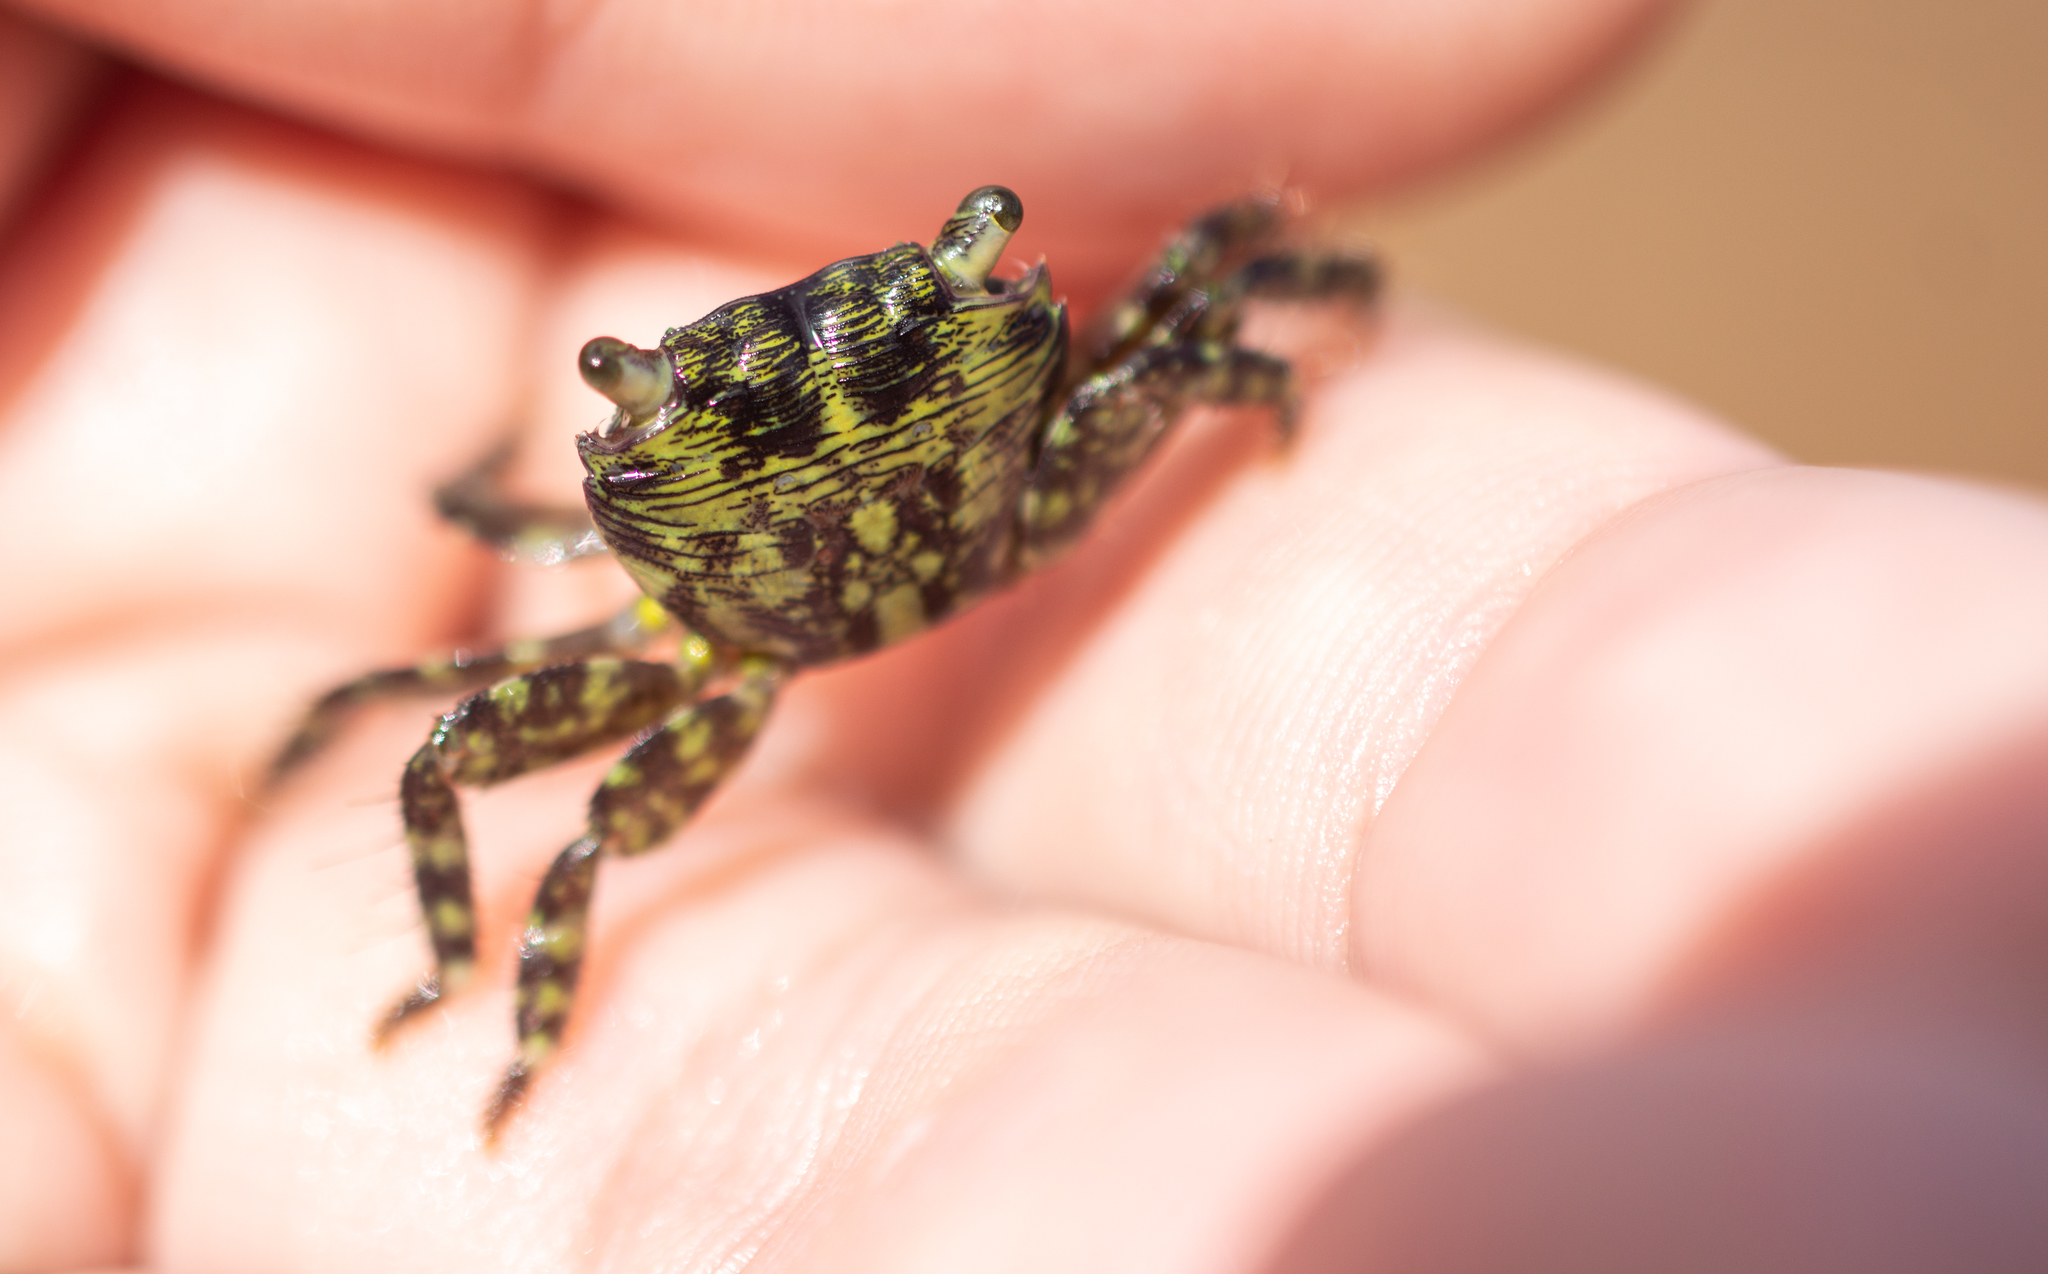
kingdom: Animalia
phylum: Arthropoda
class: Malacostraca
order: Decapoda
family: Grapsidae
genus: Pachygrapsus
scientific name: Pachygrapsus transversus
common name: Mottled shore crab
